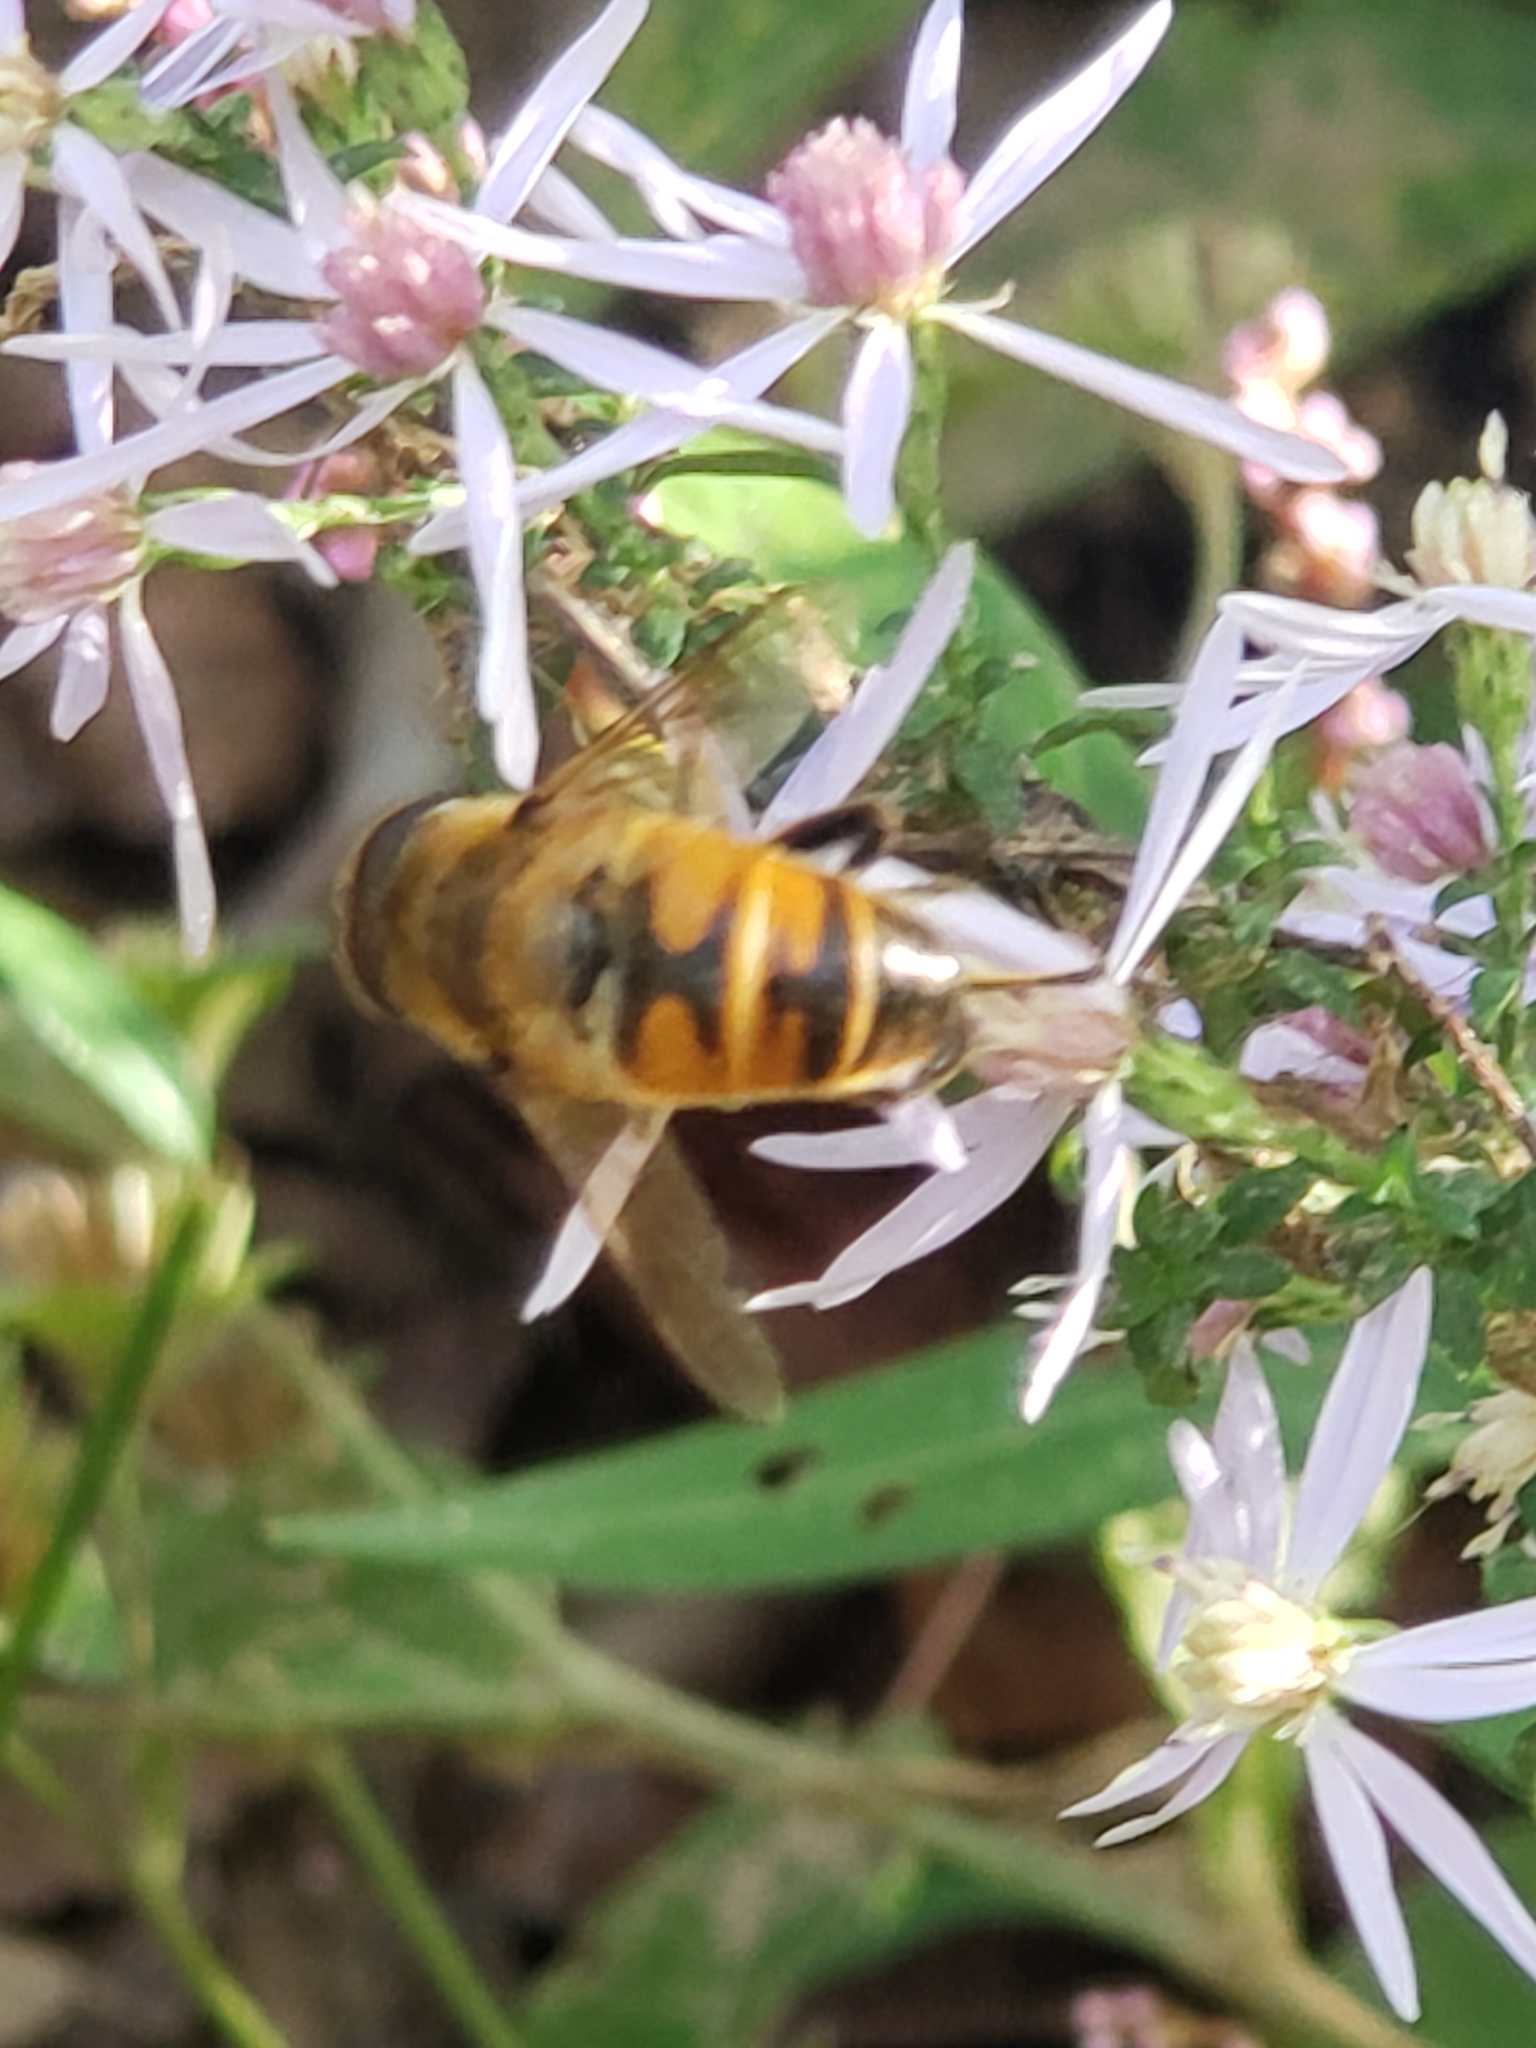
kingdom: Animalia
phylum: Arthropoda
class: Insecta
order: Diptera
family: Syrphidae
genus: Eristalis
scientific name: Eristalis tenax
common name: Drone fly
